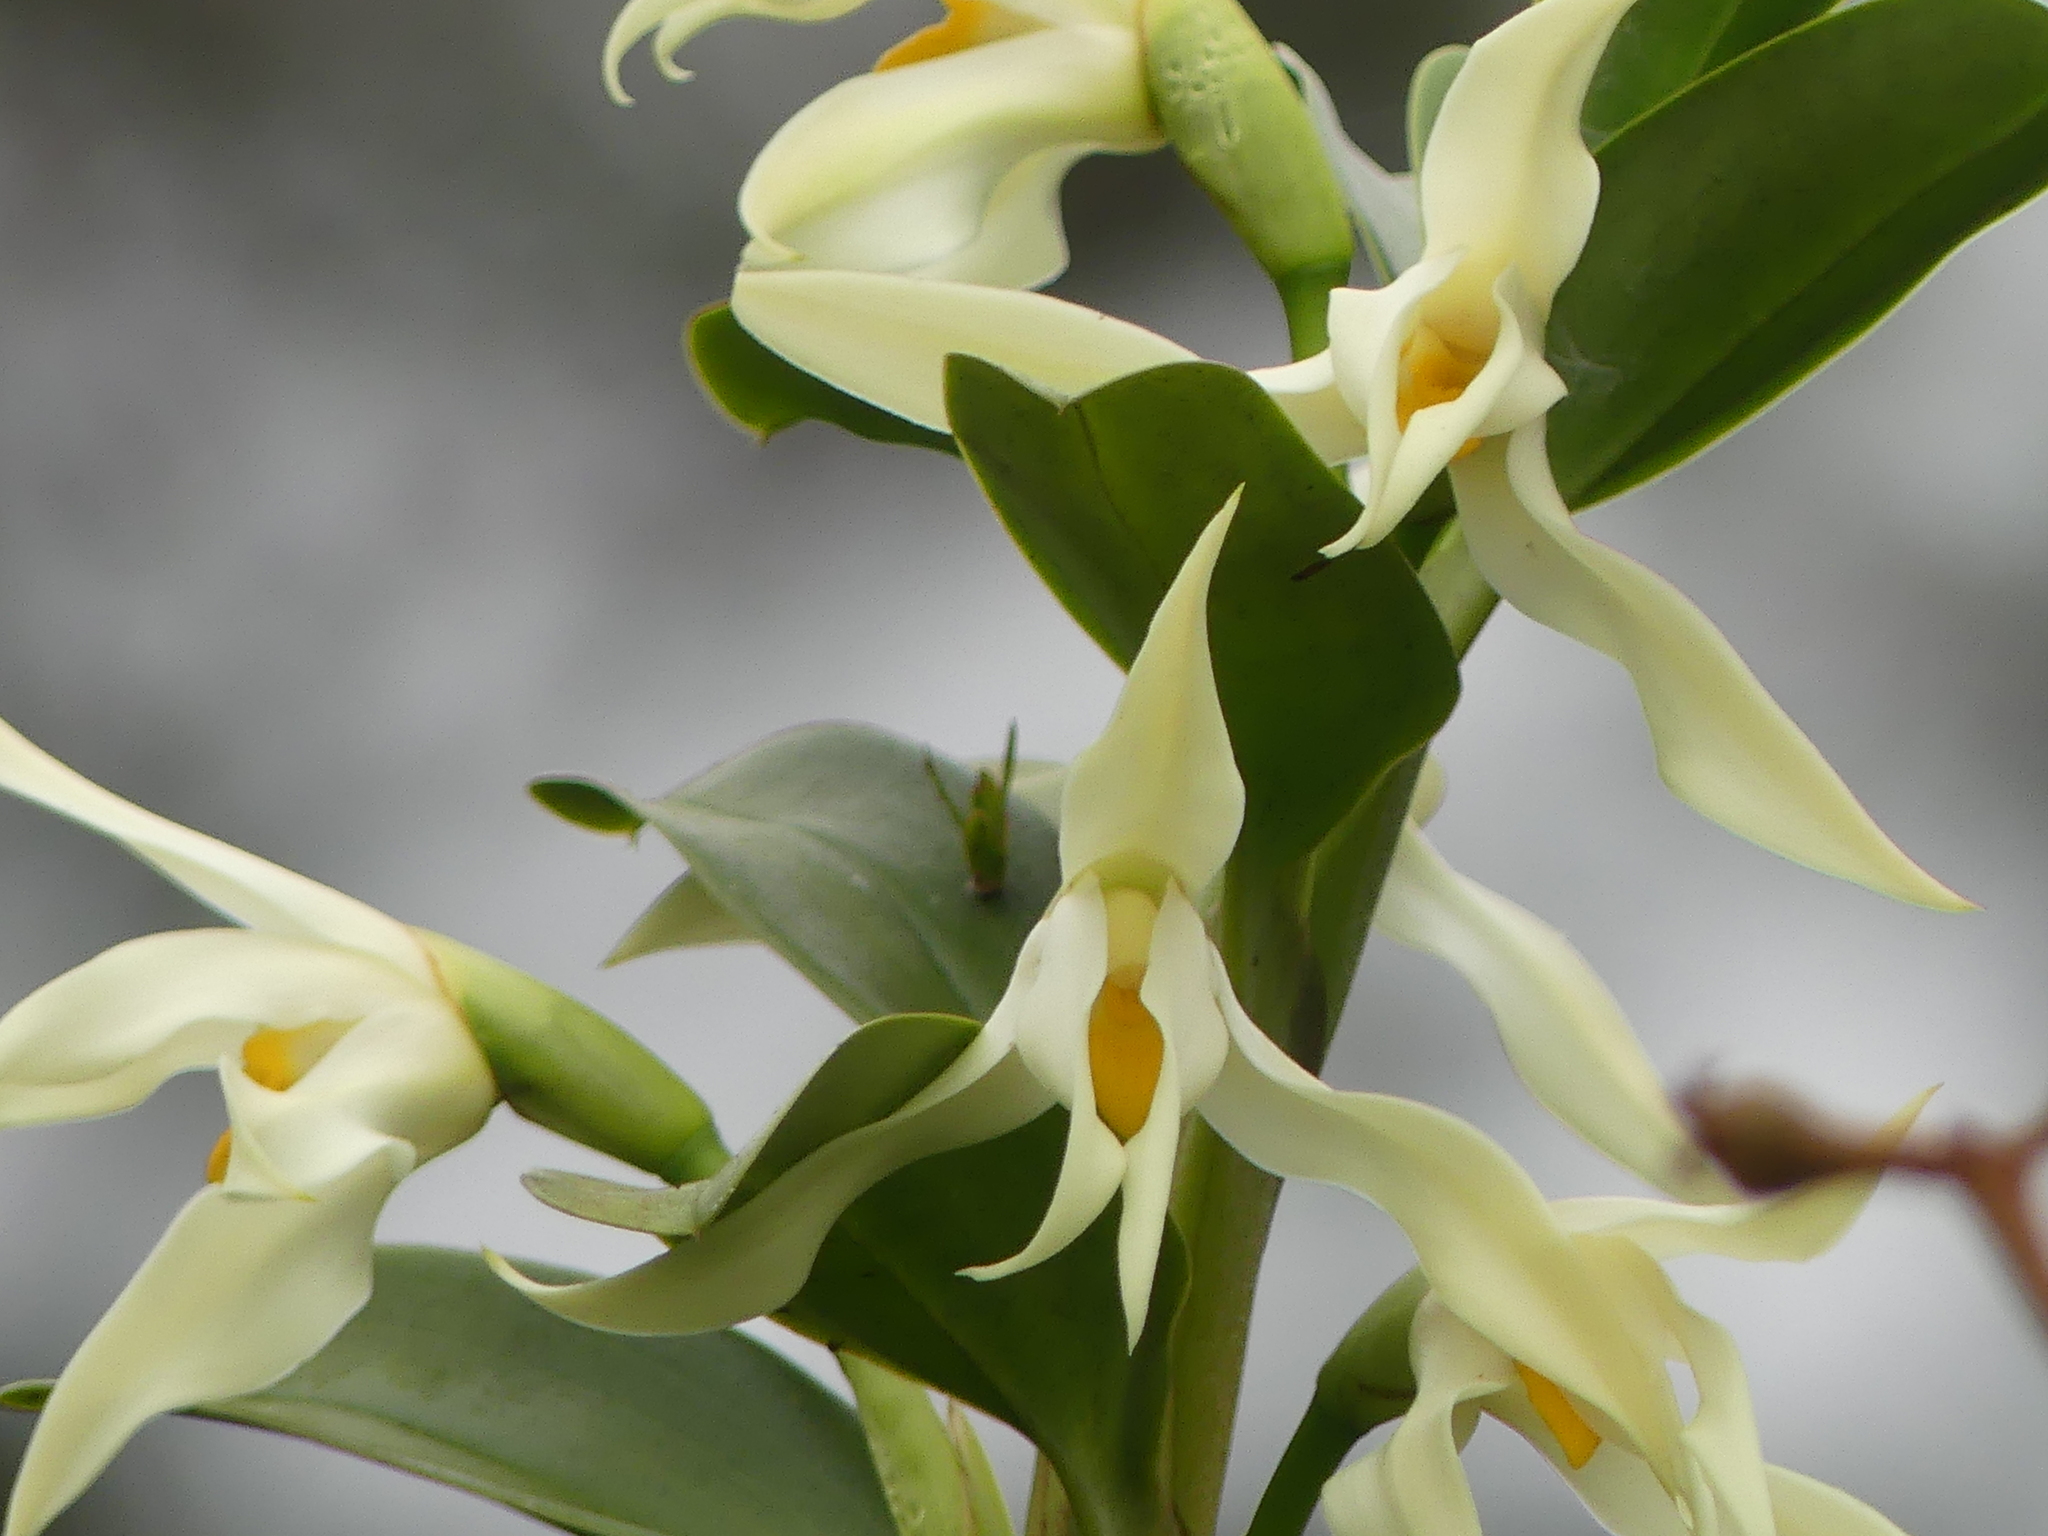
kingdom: Plantae
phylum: Tracheophyta
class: Liliopsida
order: Asparagales
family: Orchidaceae
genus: Maxillaria
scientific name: Maxillaria inaudita
